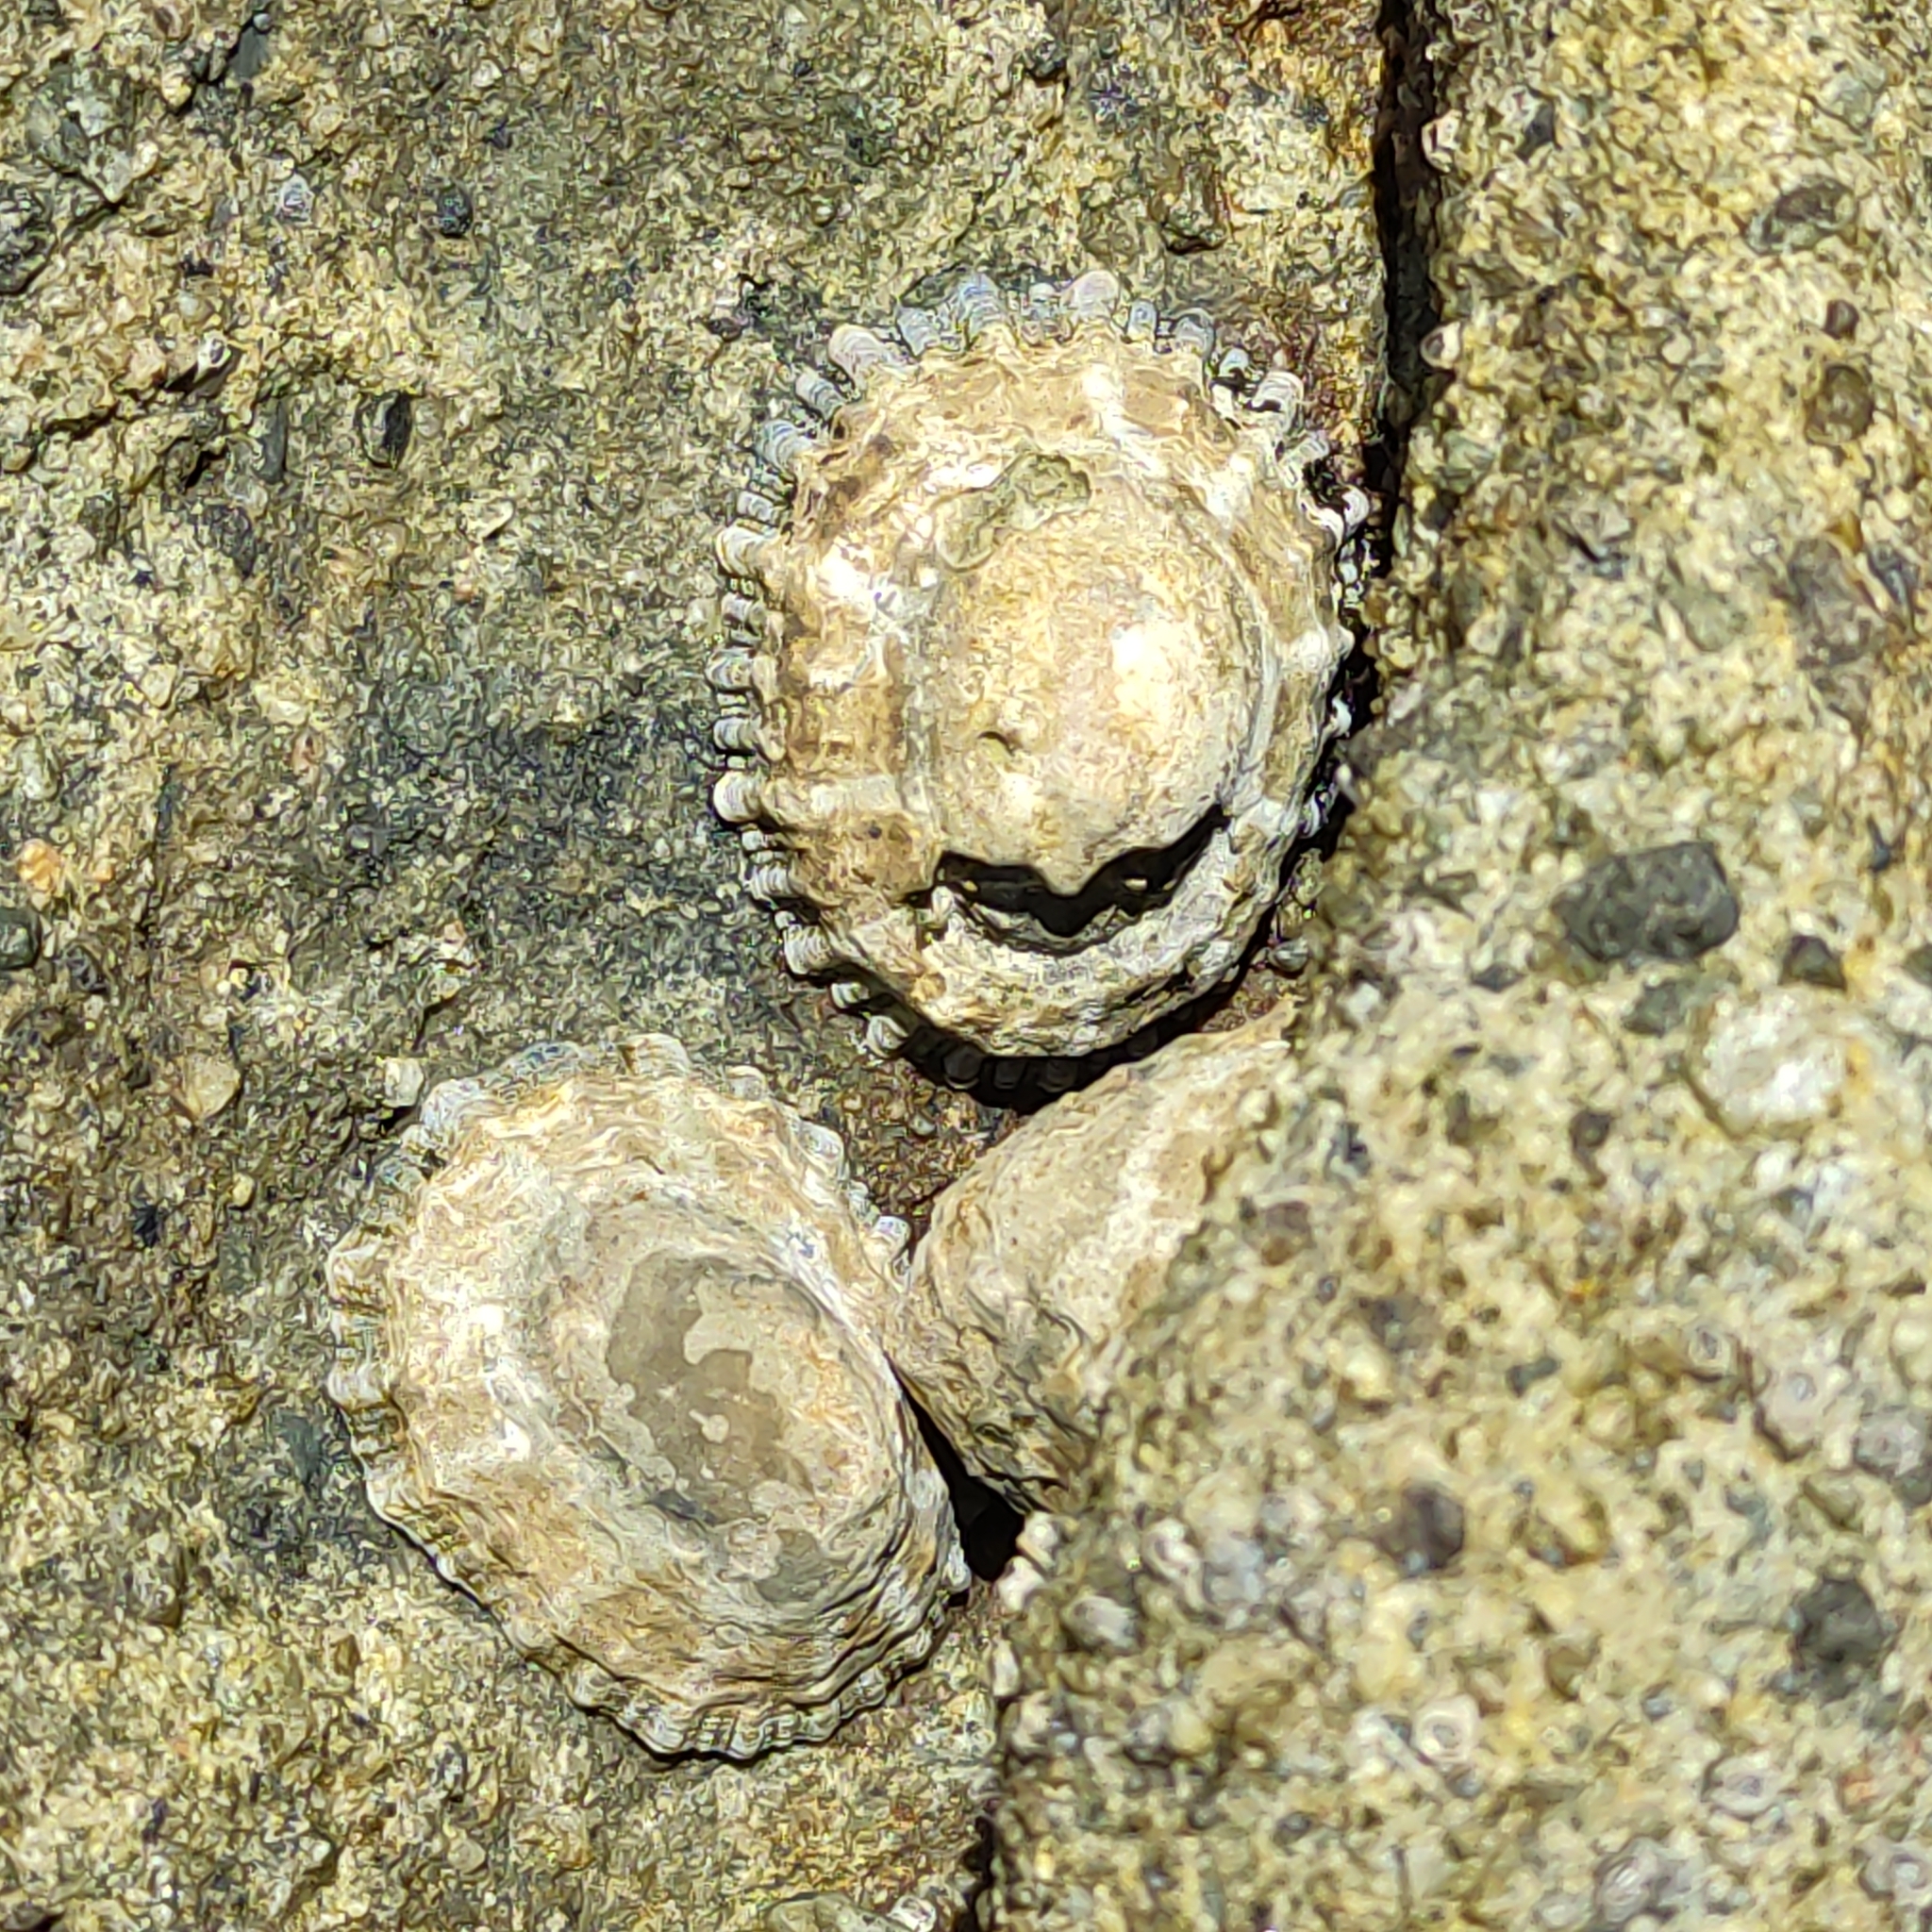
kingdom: Animalia
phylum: Mollusca
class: Gastropoda
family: Nacellidae
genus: Cellana
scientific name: Cellana ornata
